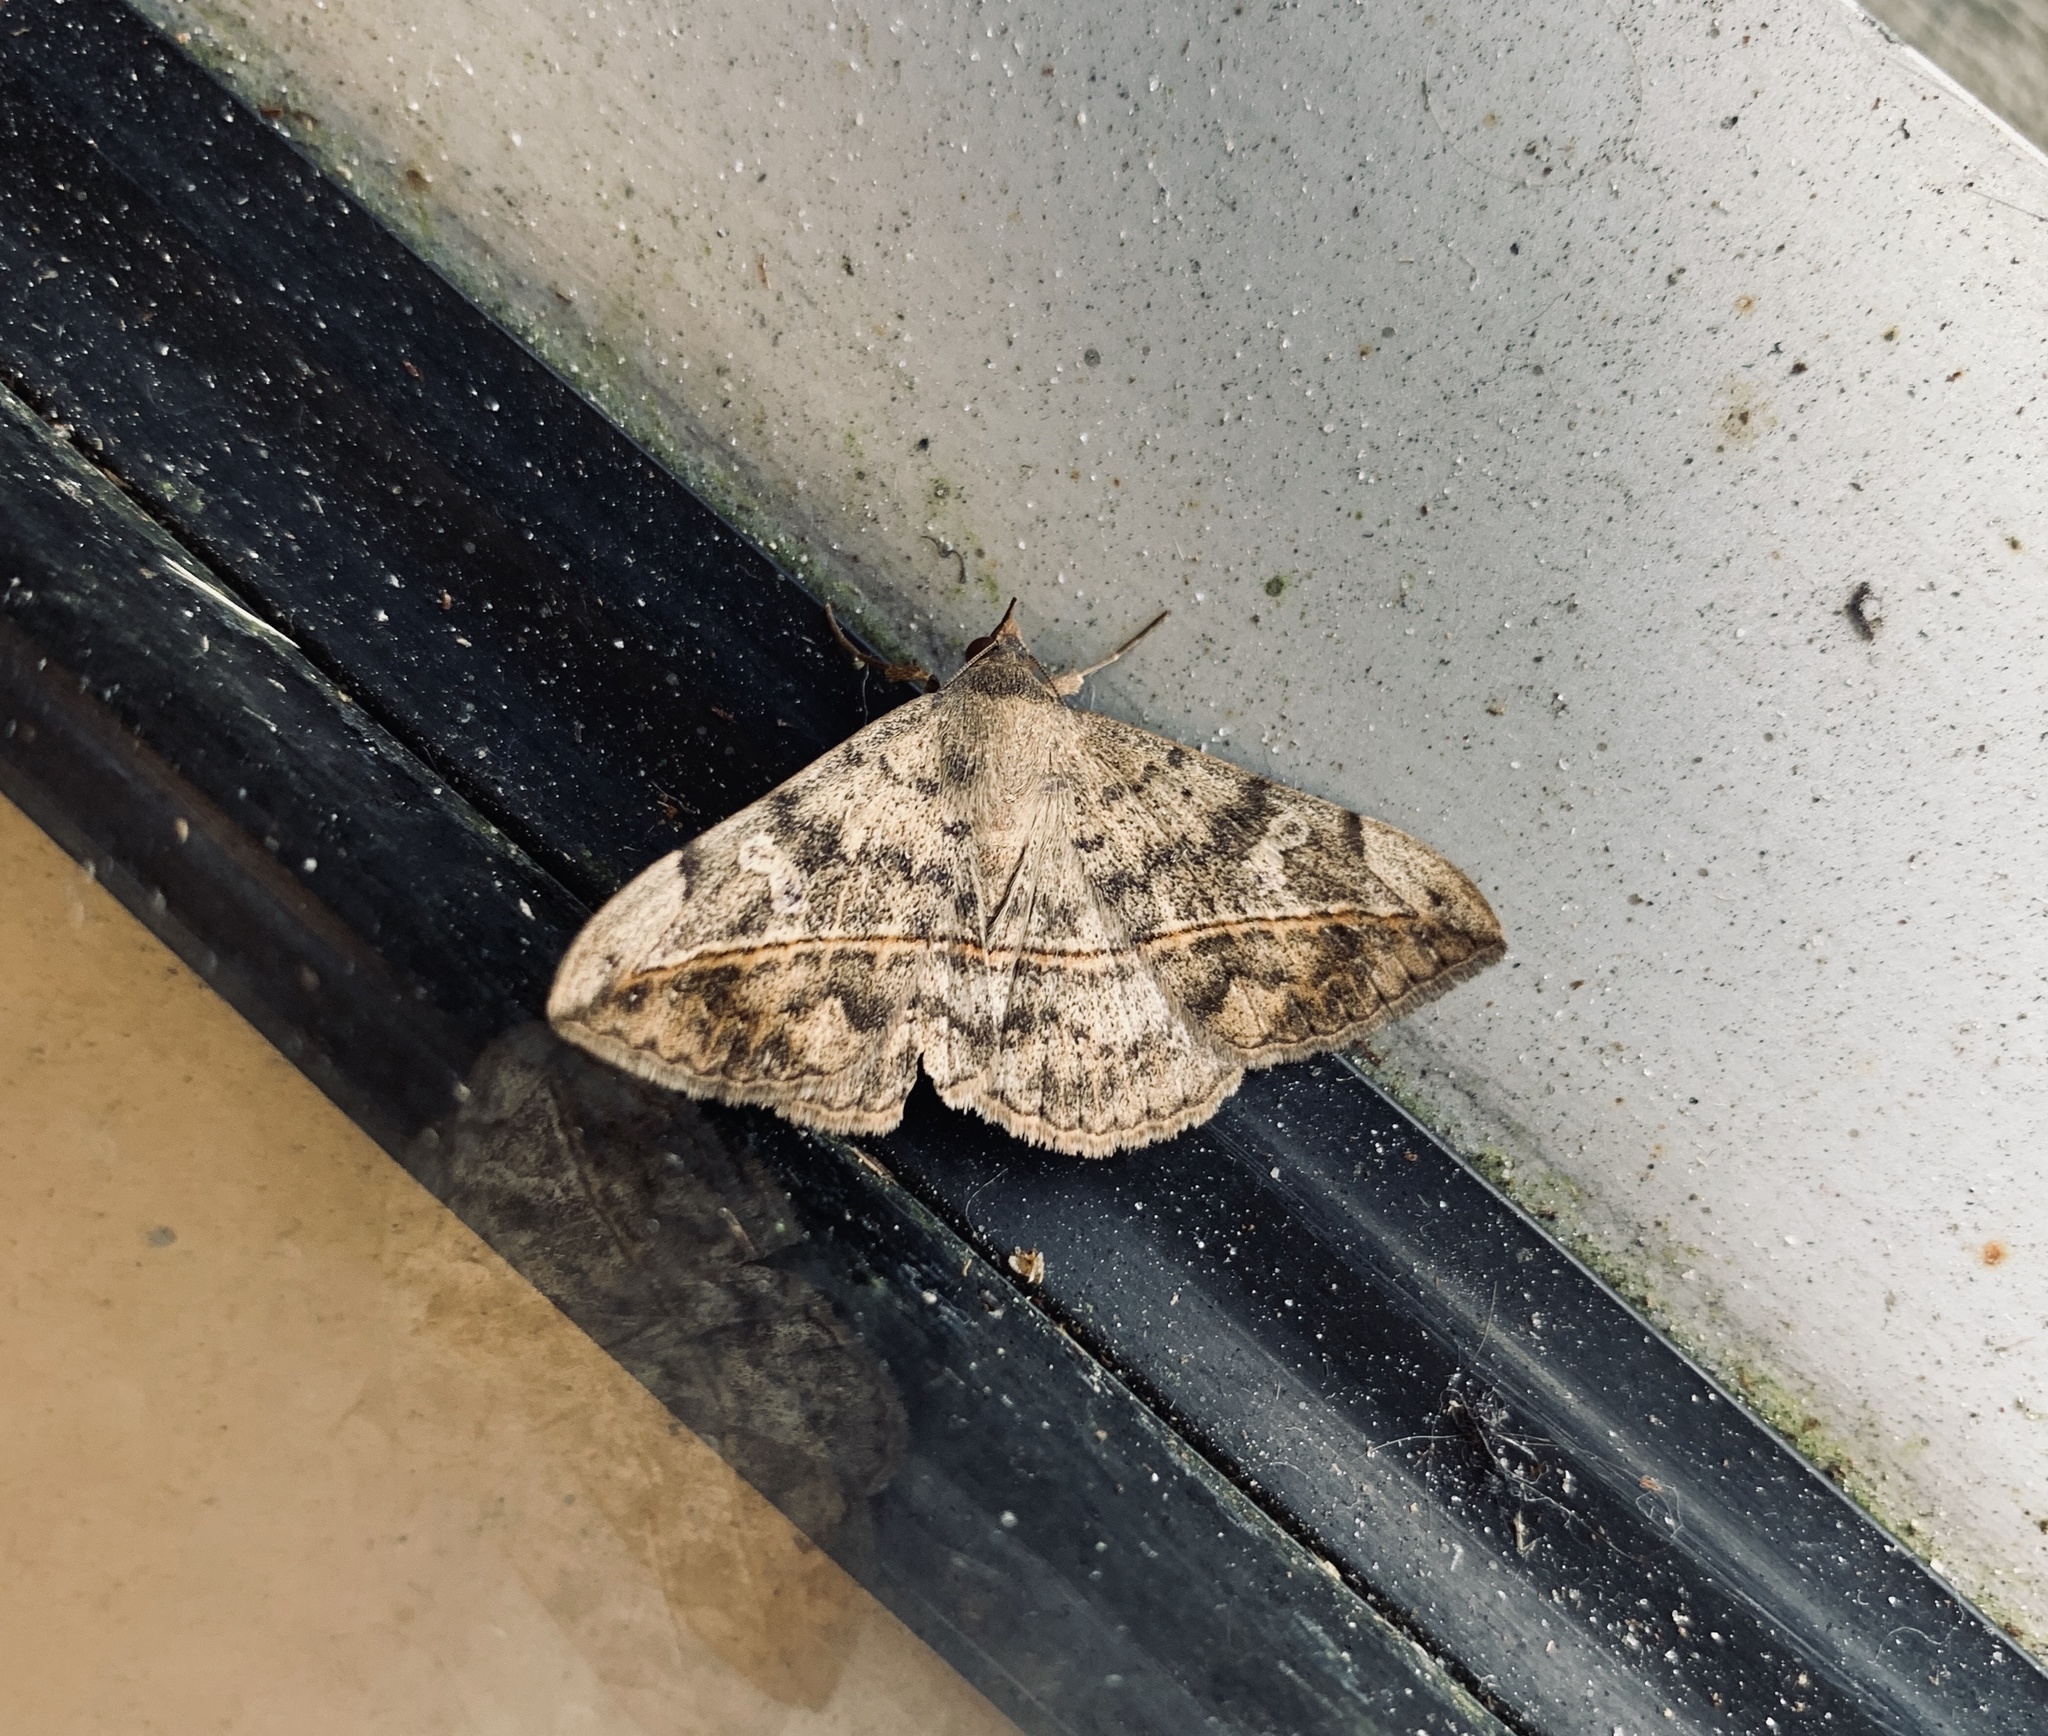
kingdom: Animalia
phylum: Arthropoda
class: Insecta
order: Lepidoptera
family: Erebidae
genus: Anticarsia
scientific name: Anticarsia gemmatalis
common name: Cutworm moth
